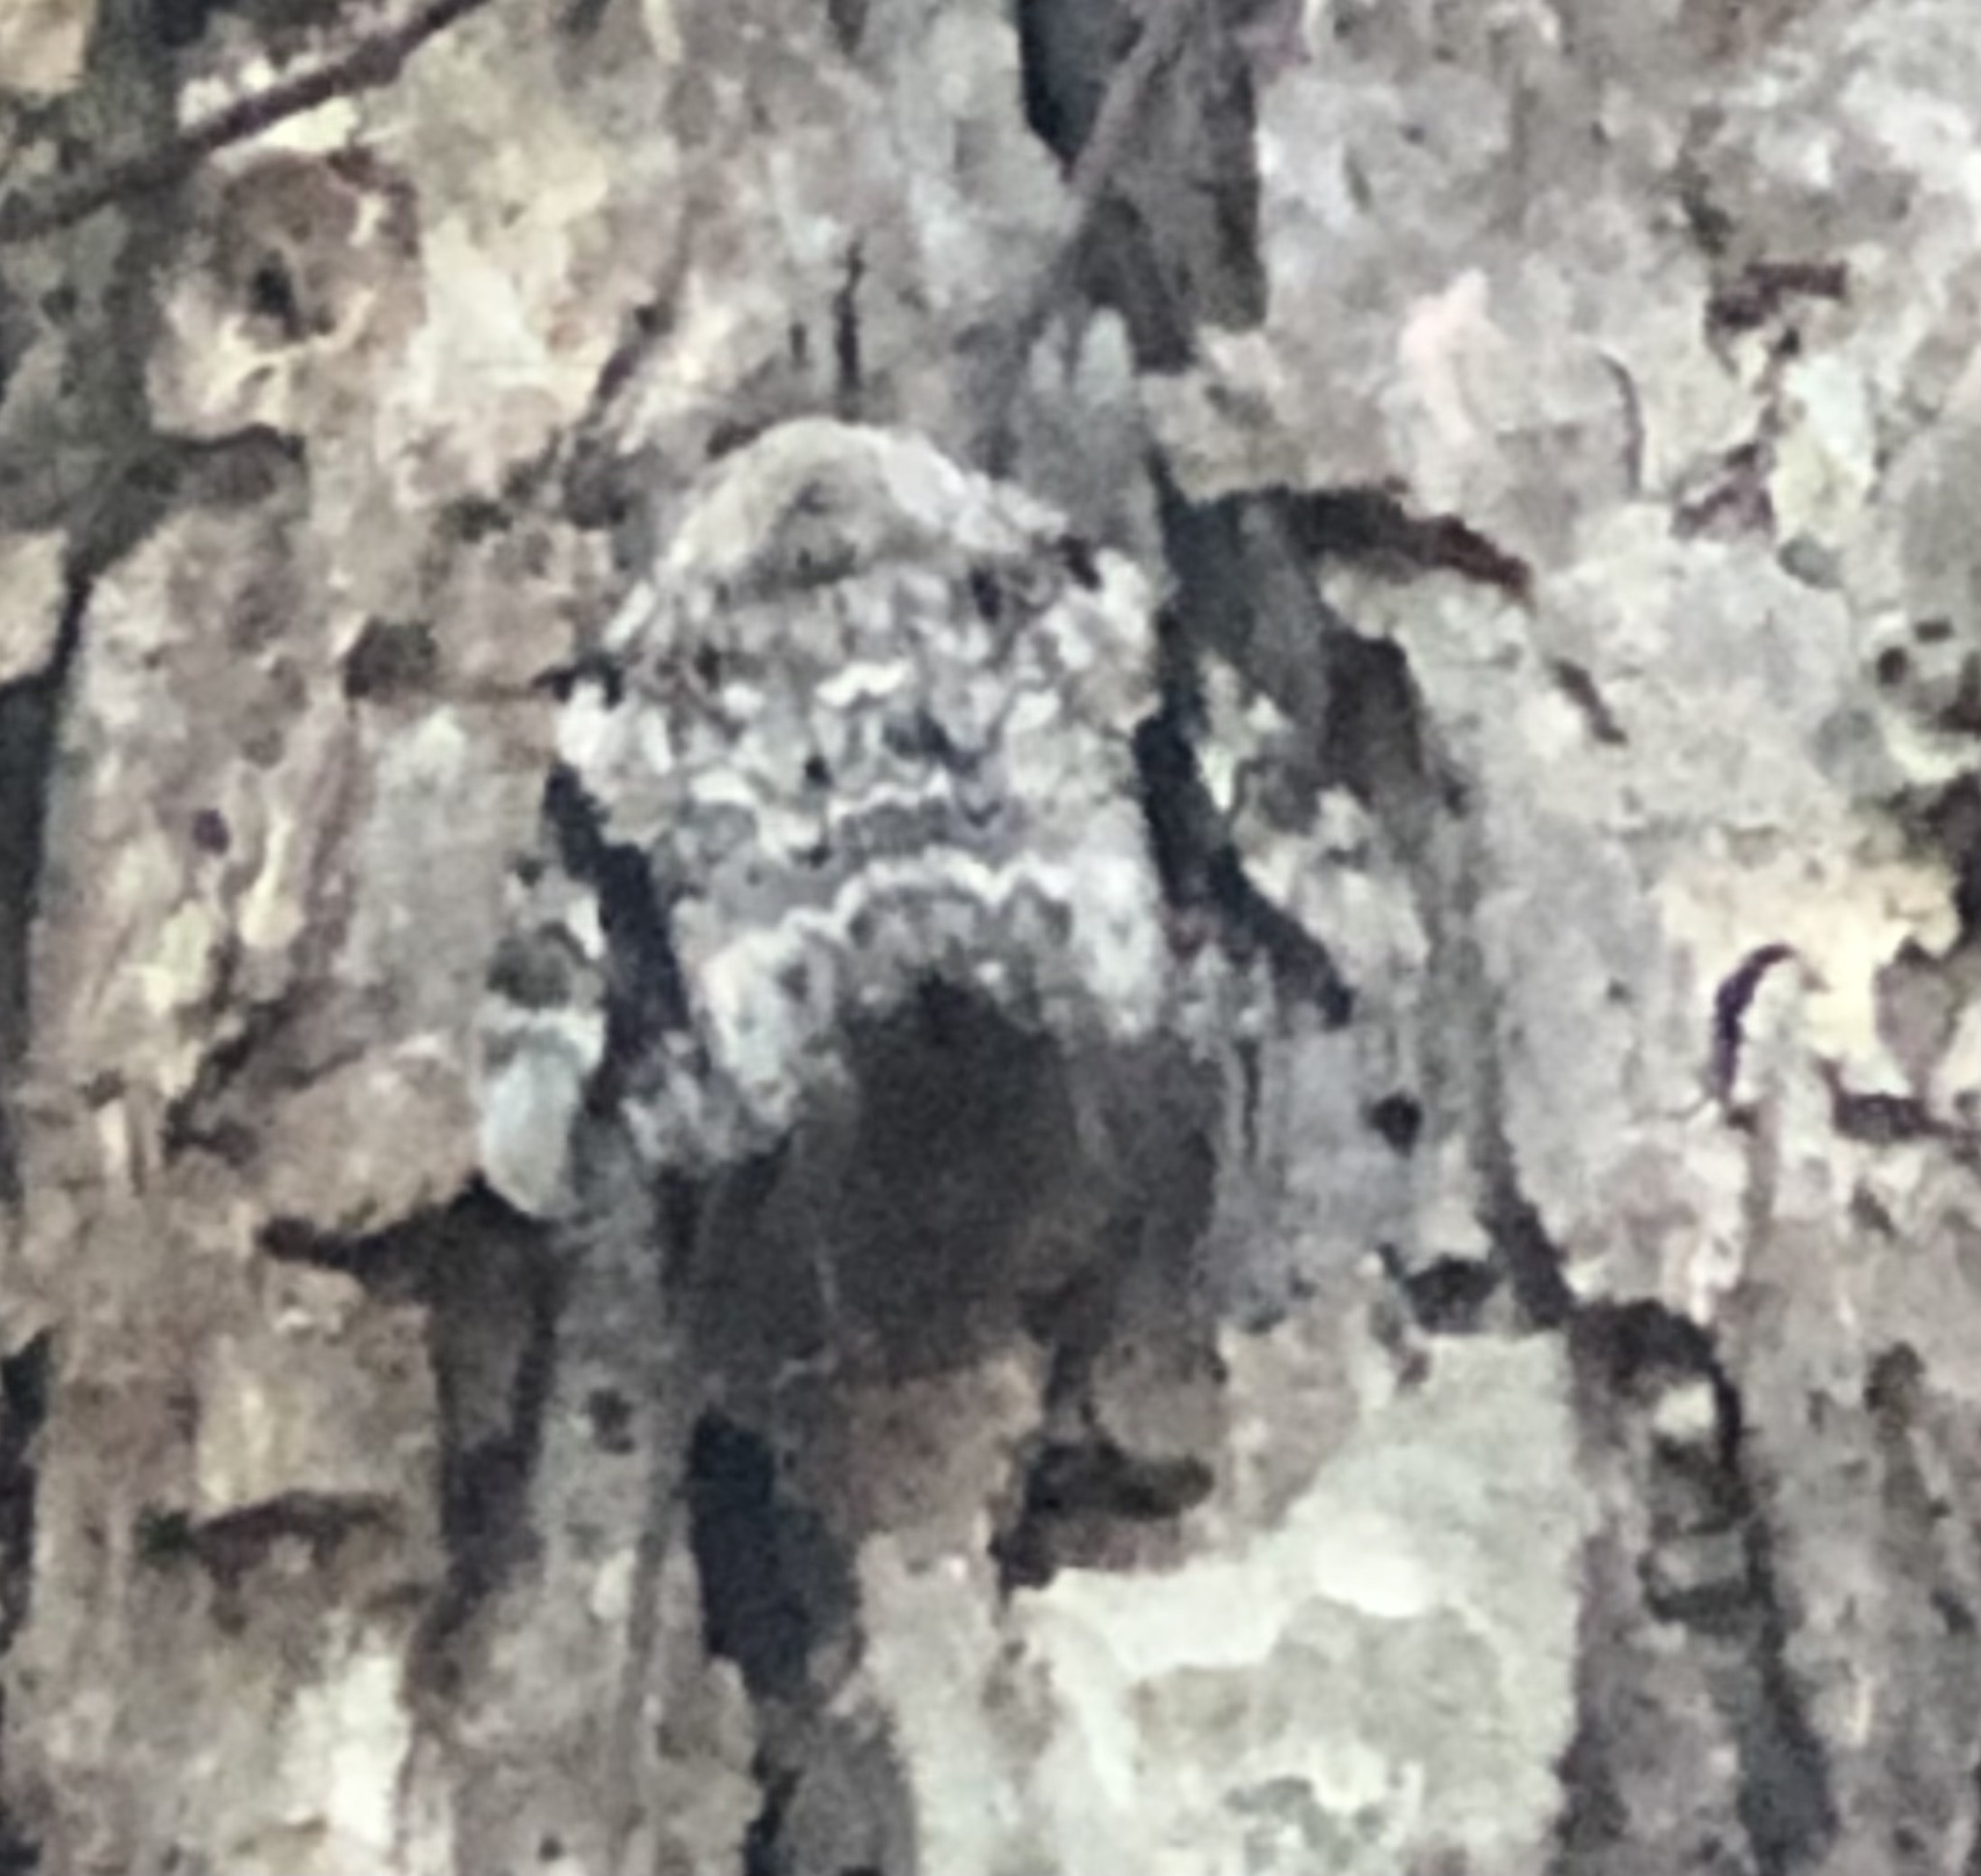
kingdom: Animalia
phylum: Arthropoda
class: Insecta
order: Lepidoptera
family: Erebidae
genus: Catocala
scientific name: Catocala maestosa
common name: Sad underwing
